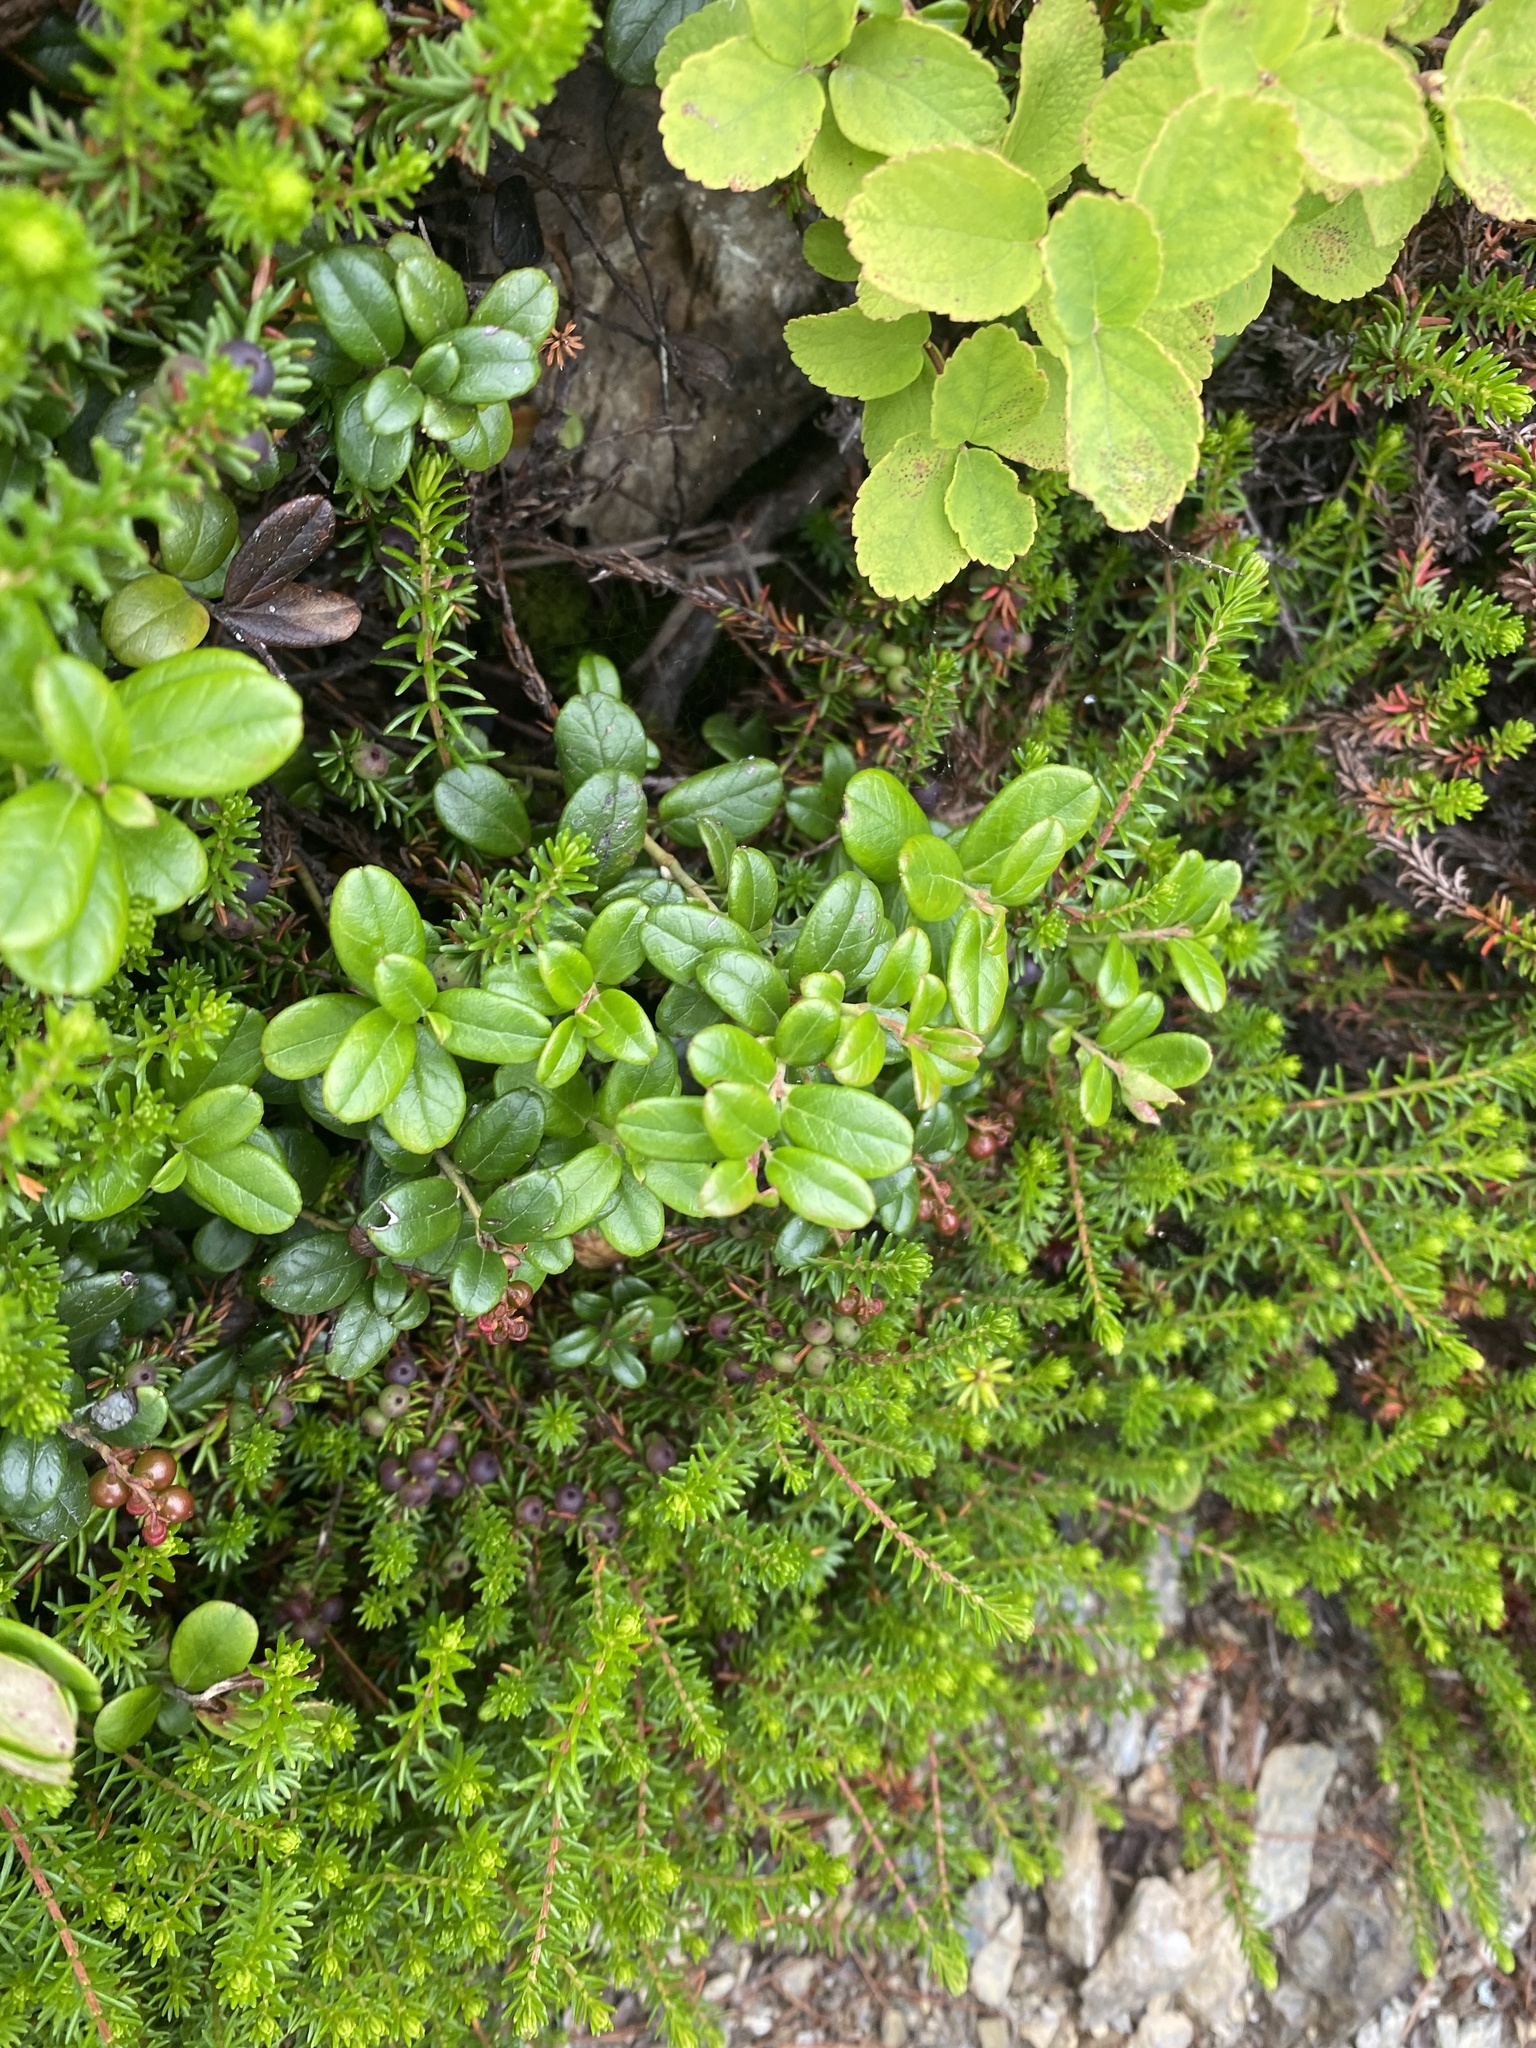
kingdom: Plantae
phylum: Tracheophyta
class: Magnoliopsida
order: Ericales
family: Ericaceae
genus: Vaccinium
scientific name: Vaccinium vitis-idaea
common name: Cowberry
